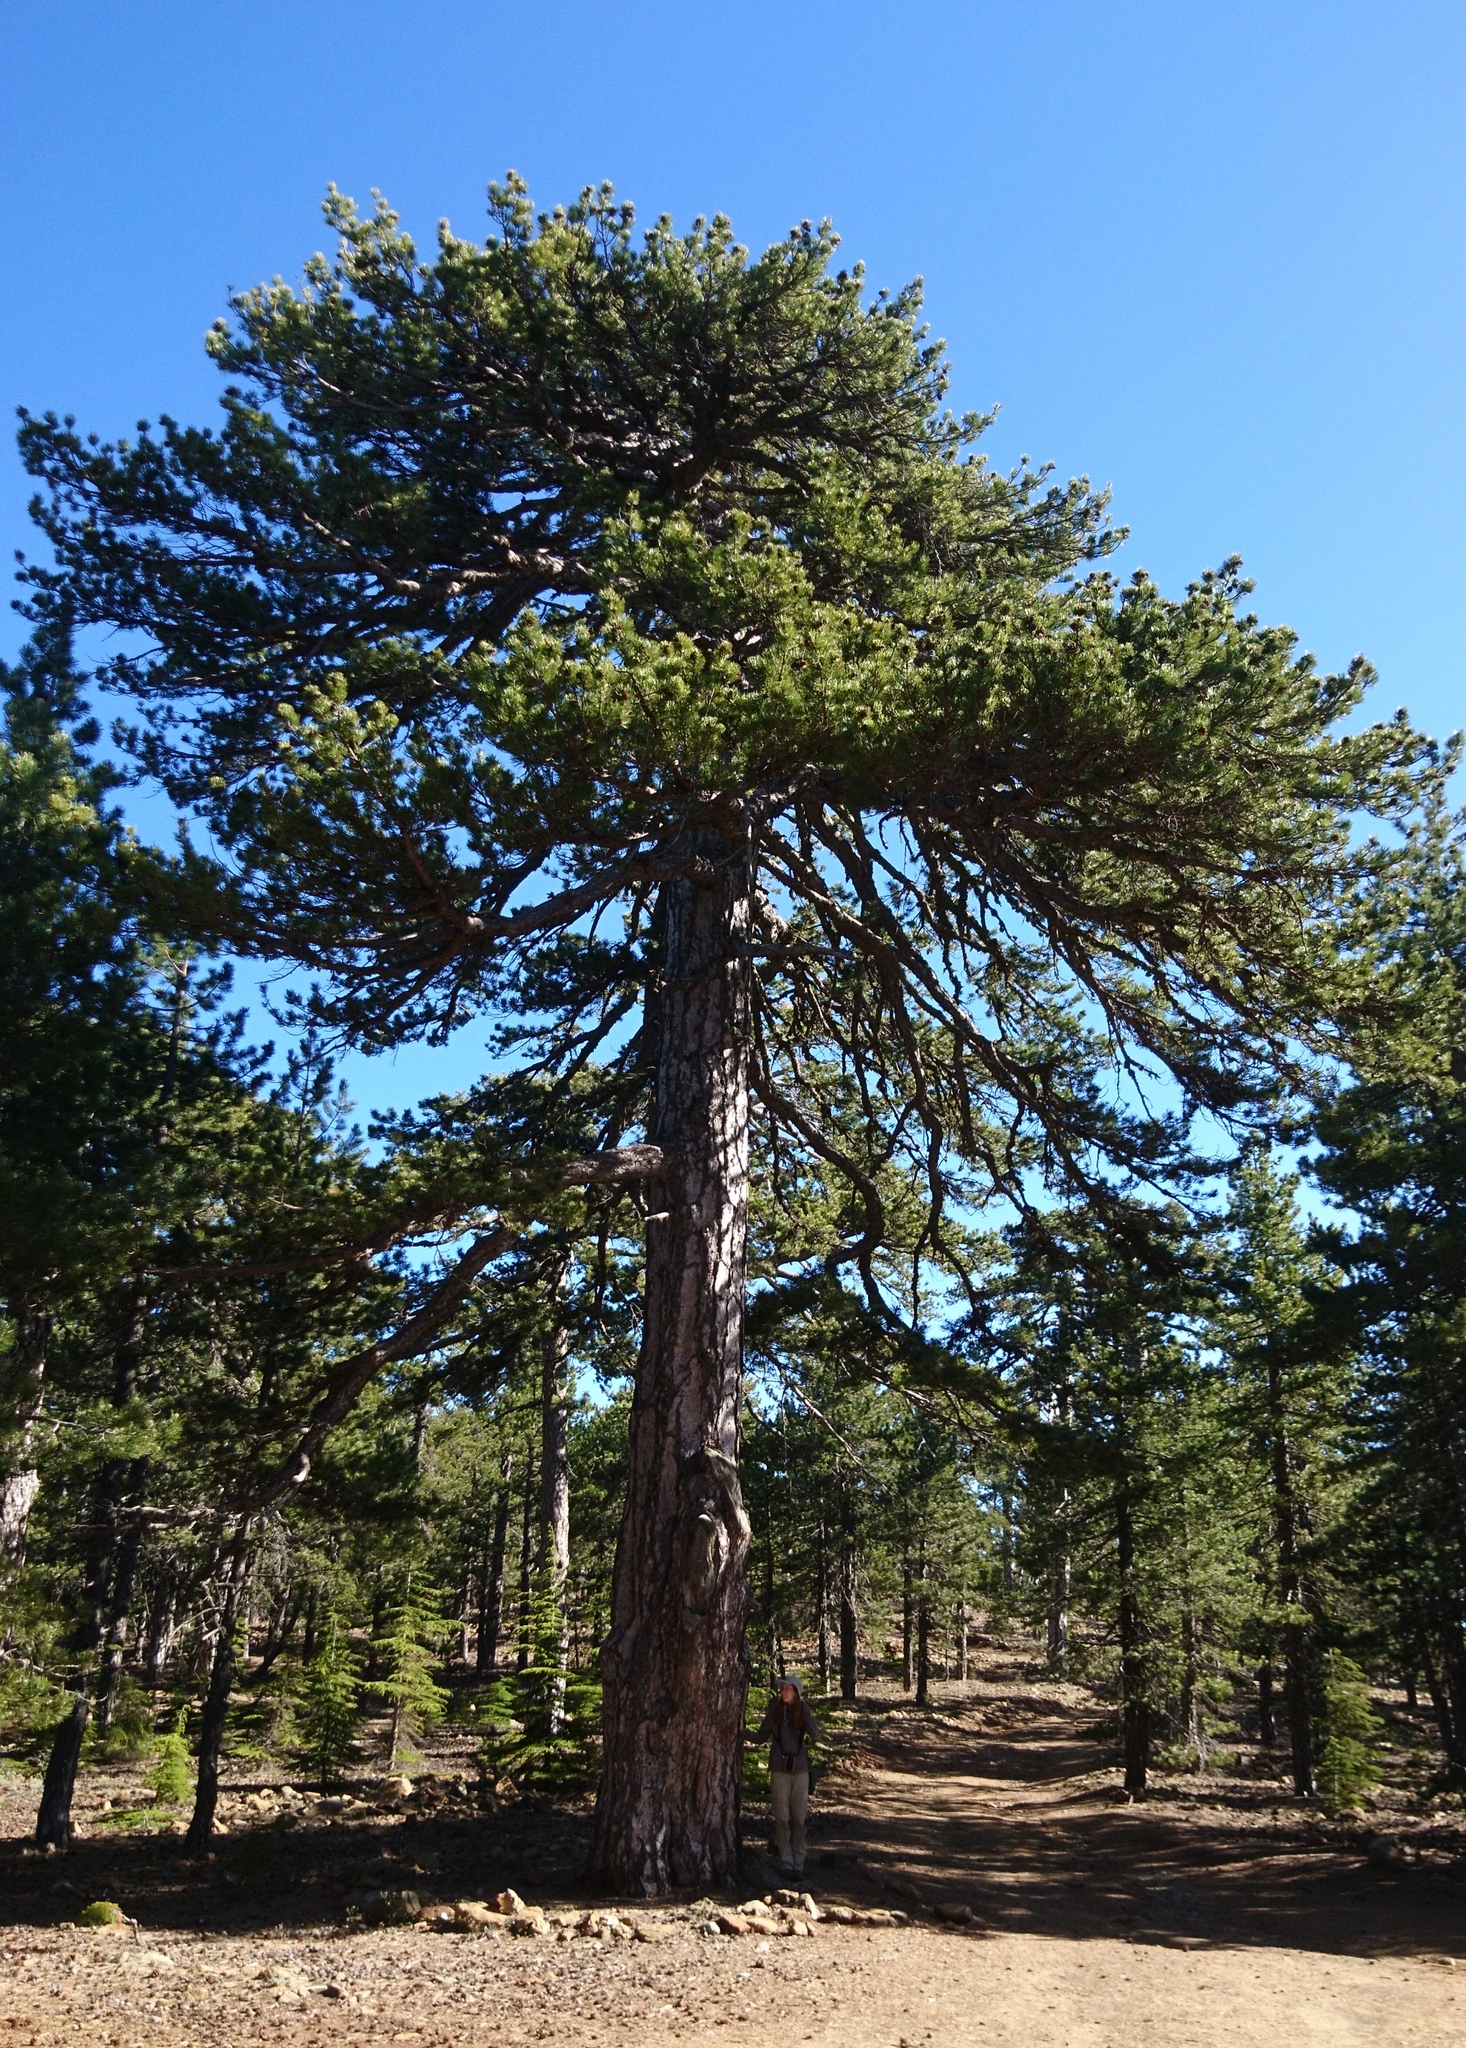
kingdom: Plantae
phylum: Tracheophyta
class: Pinopsida
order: Pinales
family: Pinaceae
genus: Pinus
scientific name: Pinus nigra
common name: Austrian pine
